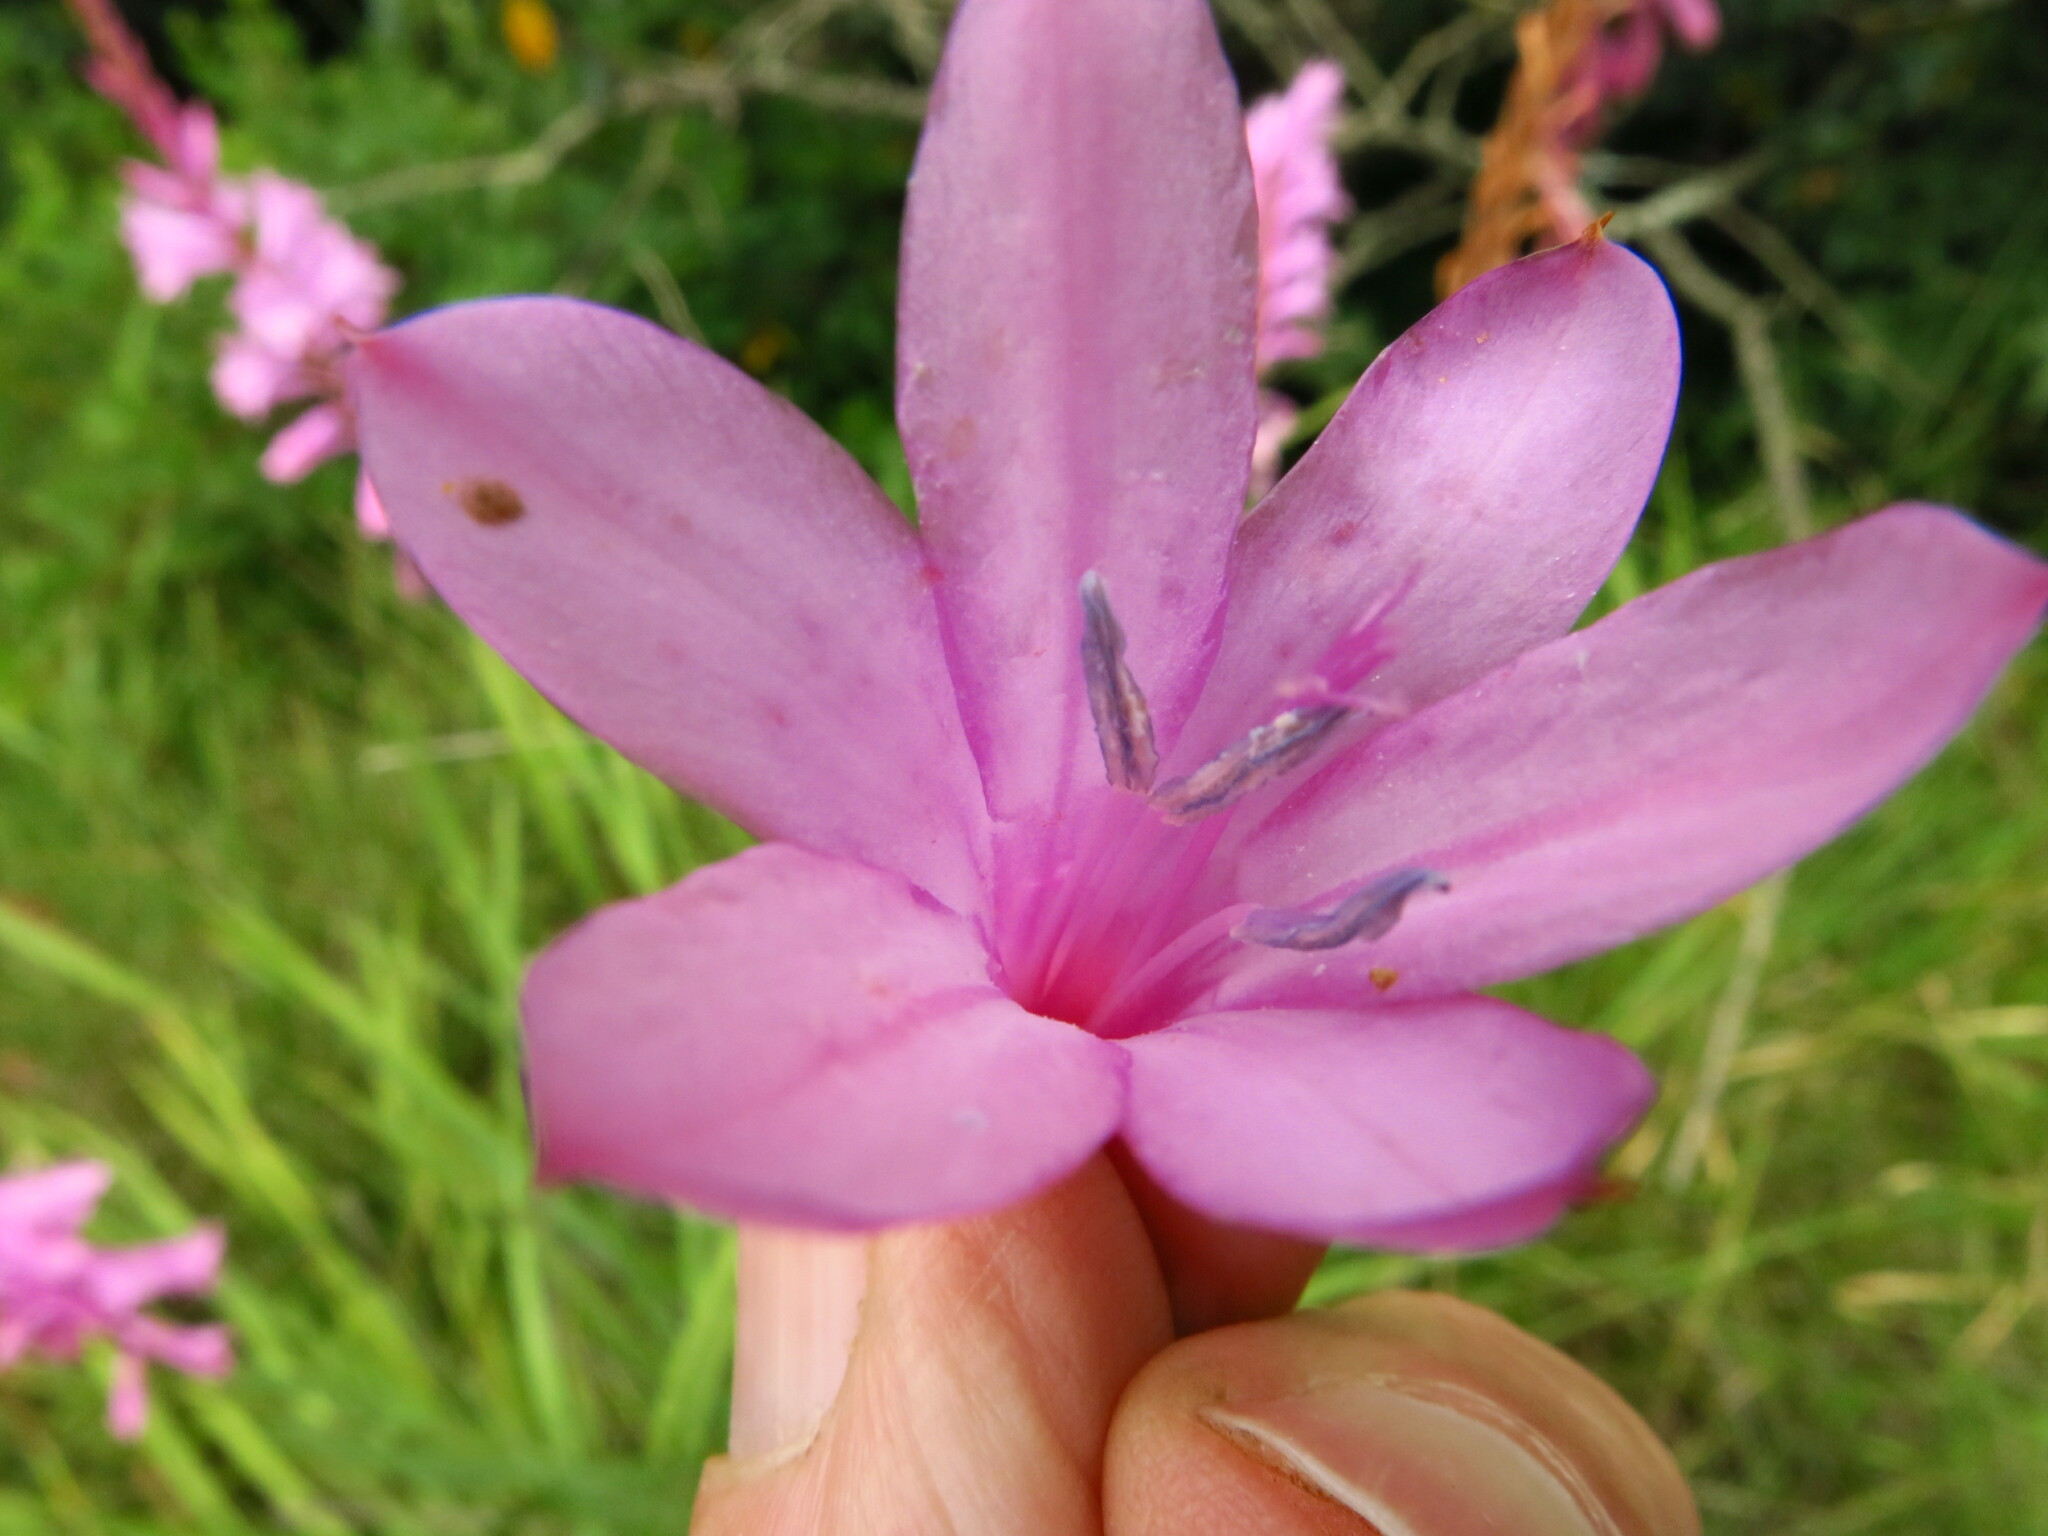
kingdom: Plantae
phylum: Tracheophyta
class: Liliopsida
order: Asparagales
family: Iridaceae
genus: Watsonia
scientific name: Watsonia densiflora
